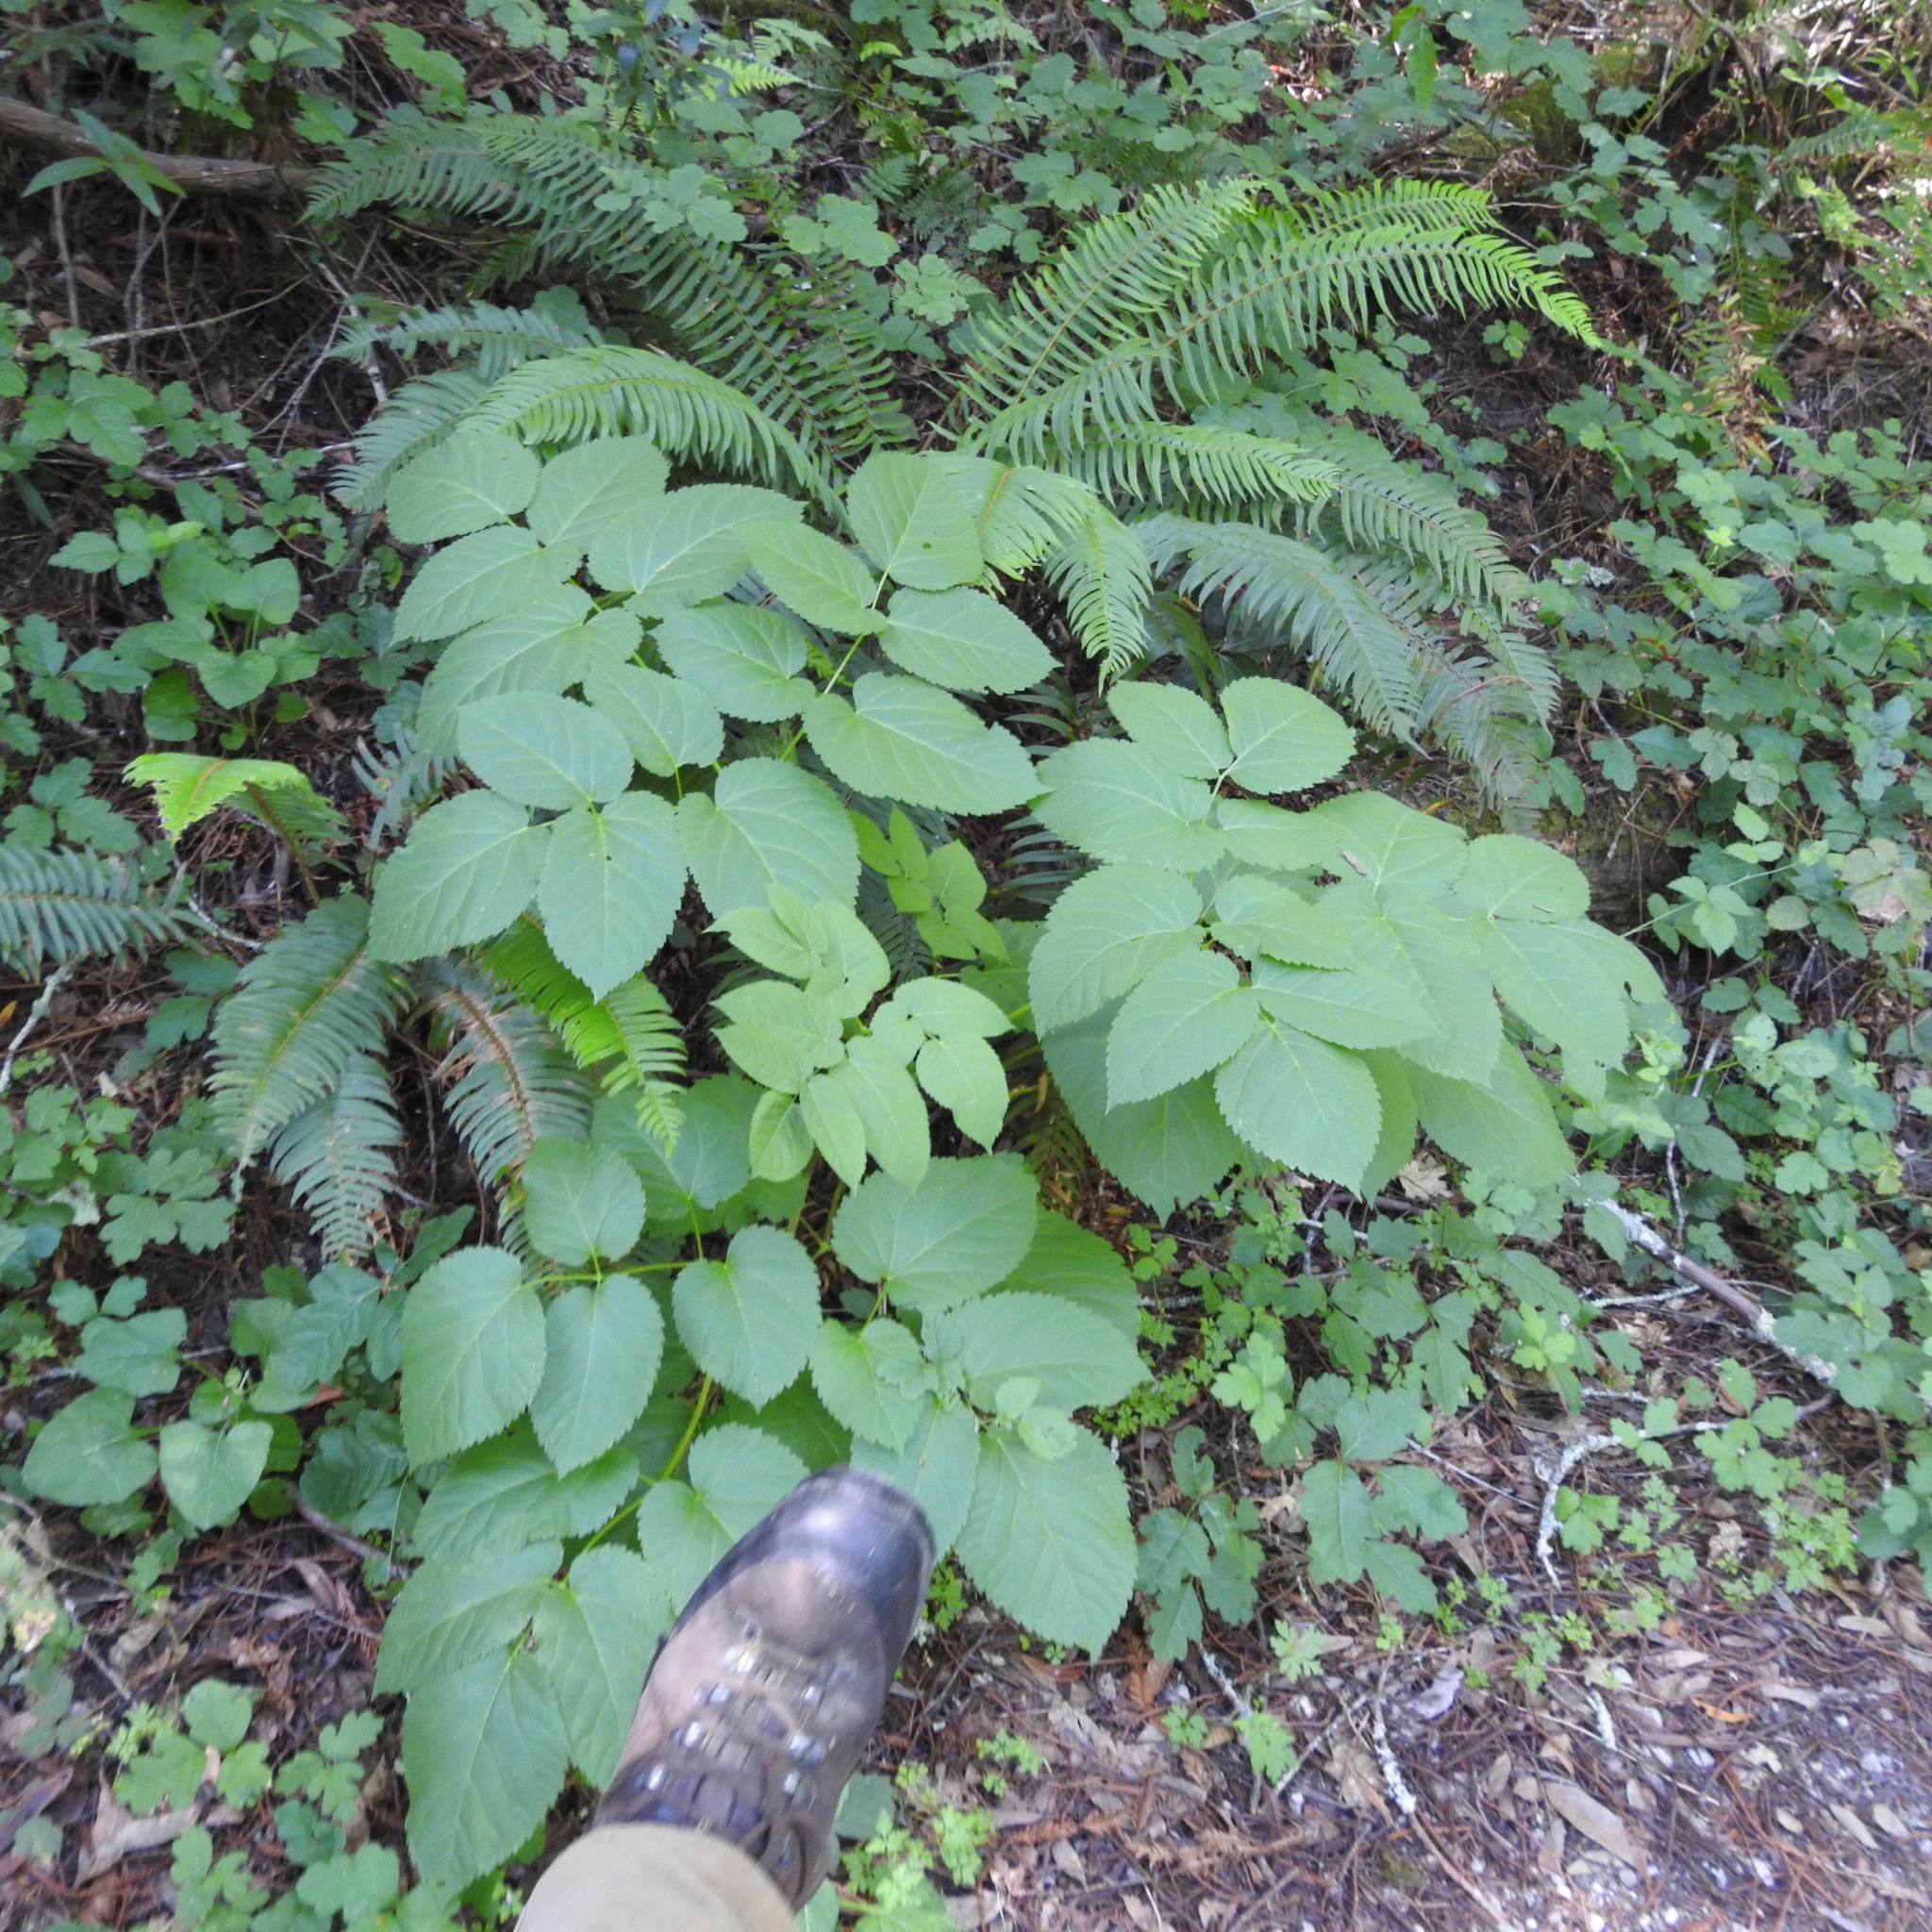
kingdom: Plantae
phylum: Tracheophyta
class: Magnoliopsida
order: Apiales
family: Araliaceae
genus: Aralia
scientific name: Aralia californica
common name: California-ginseng
